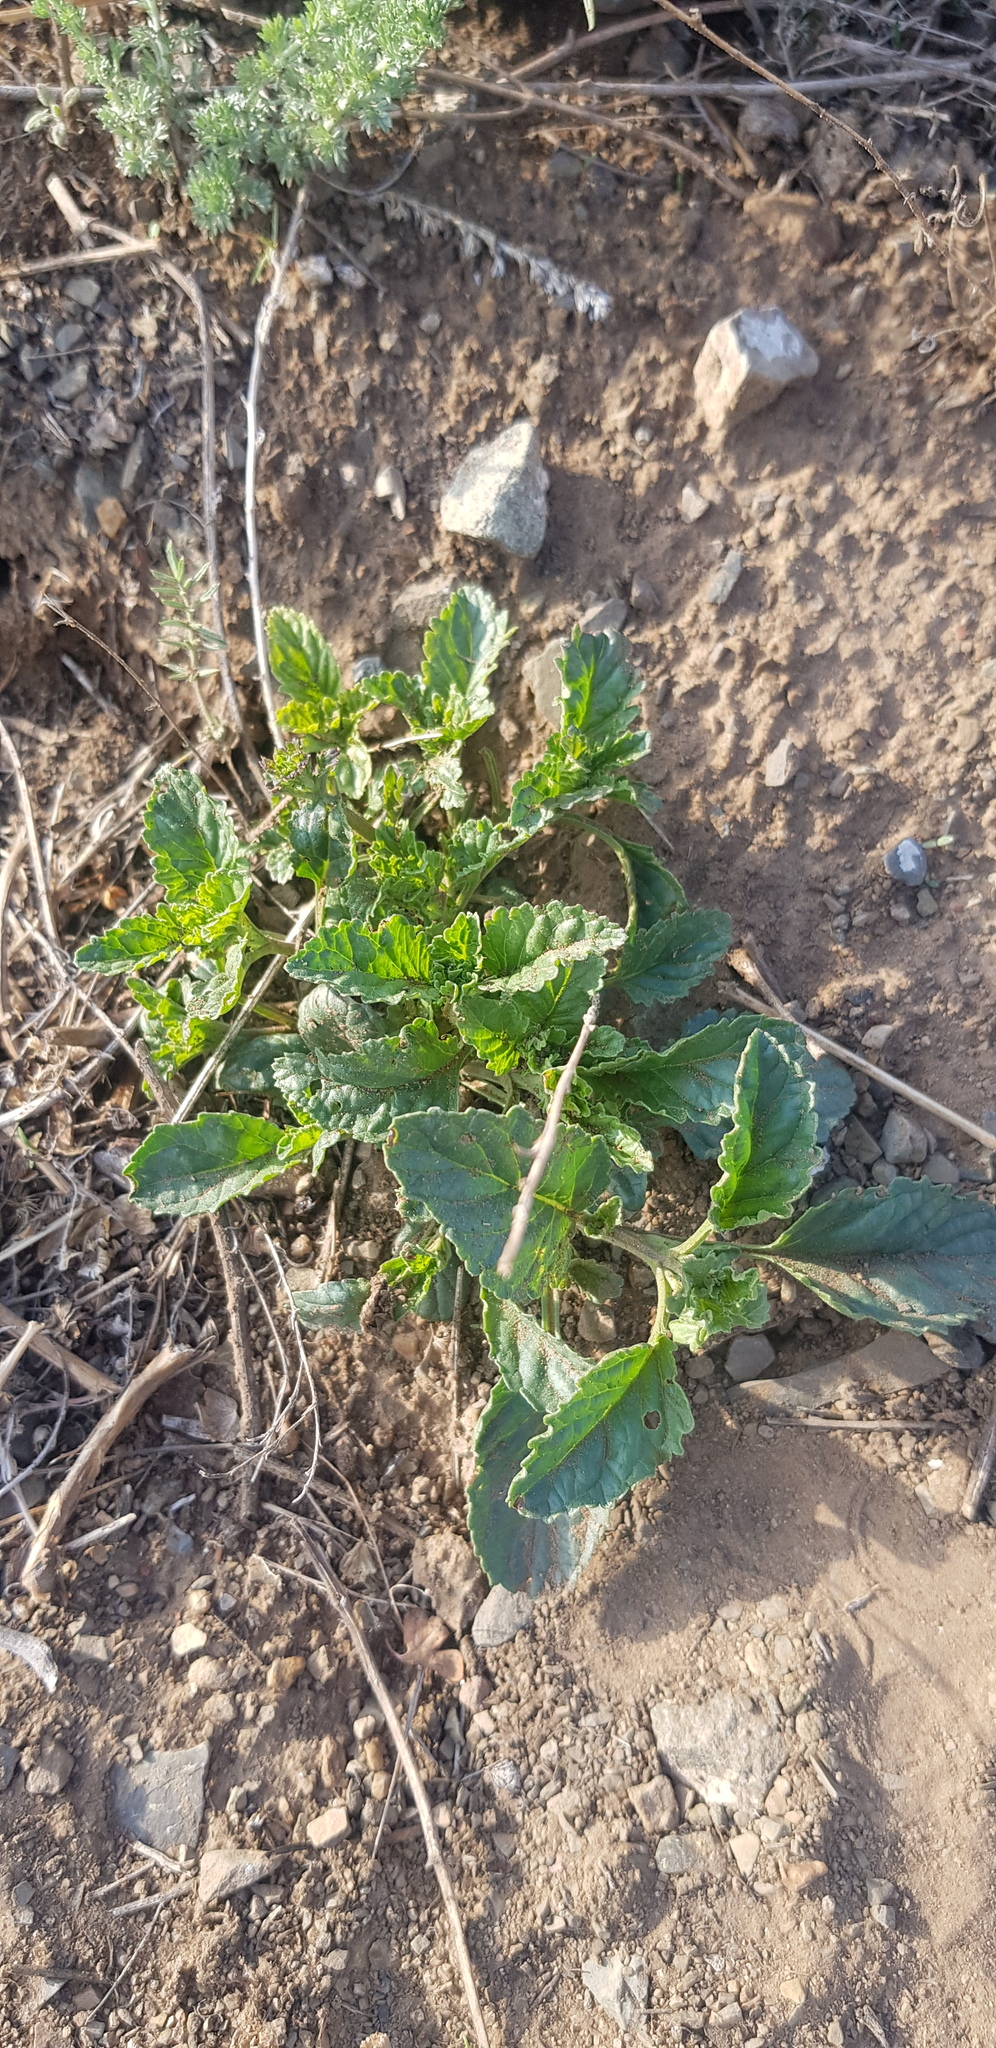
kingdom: Plantae
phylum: Tracheophyta
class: Magnoliopsida
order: Lamiales
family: Scrophulariaceae
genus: Scrophularia
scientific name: Scrophularia incisa
